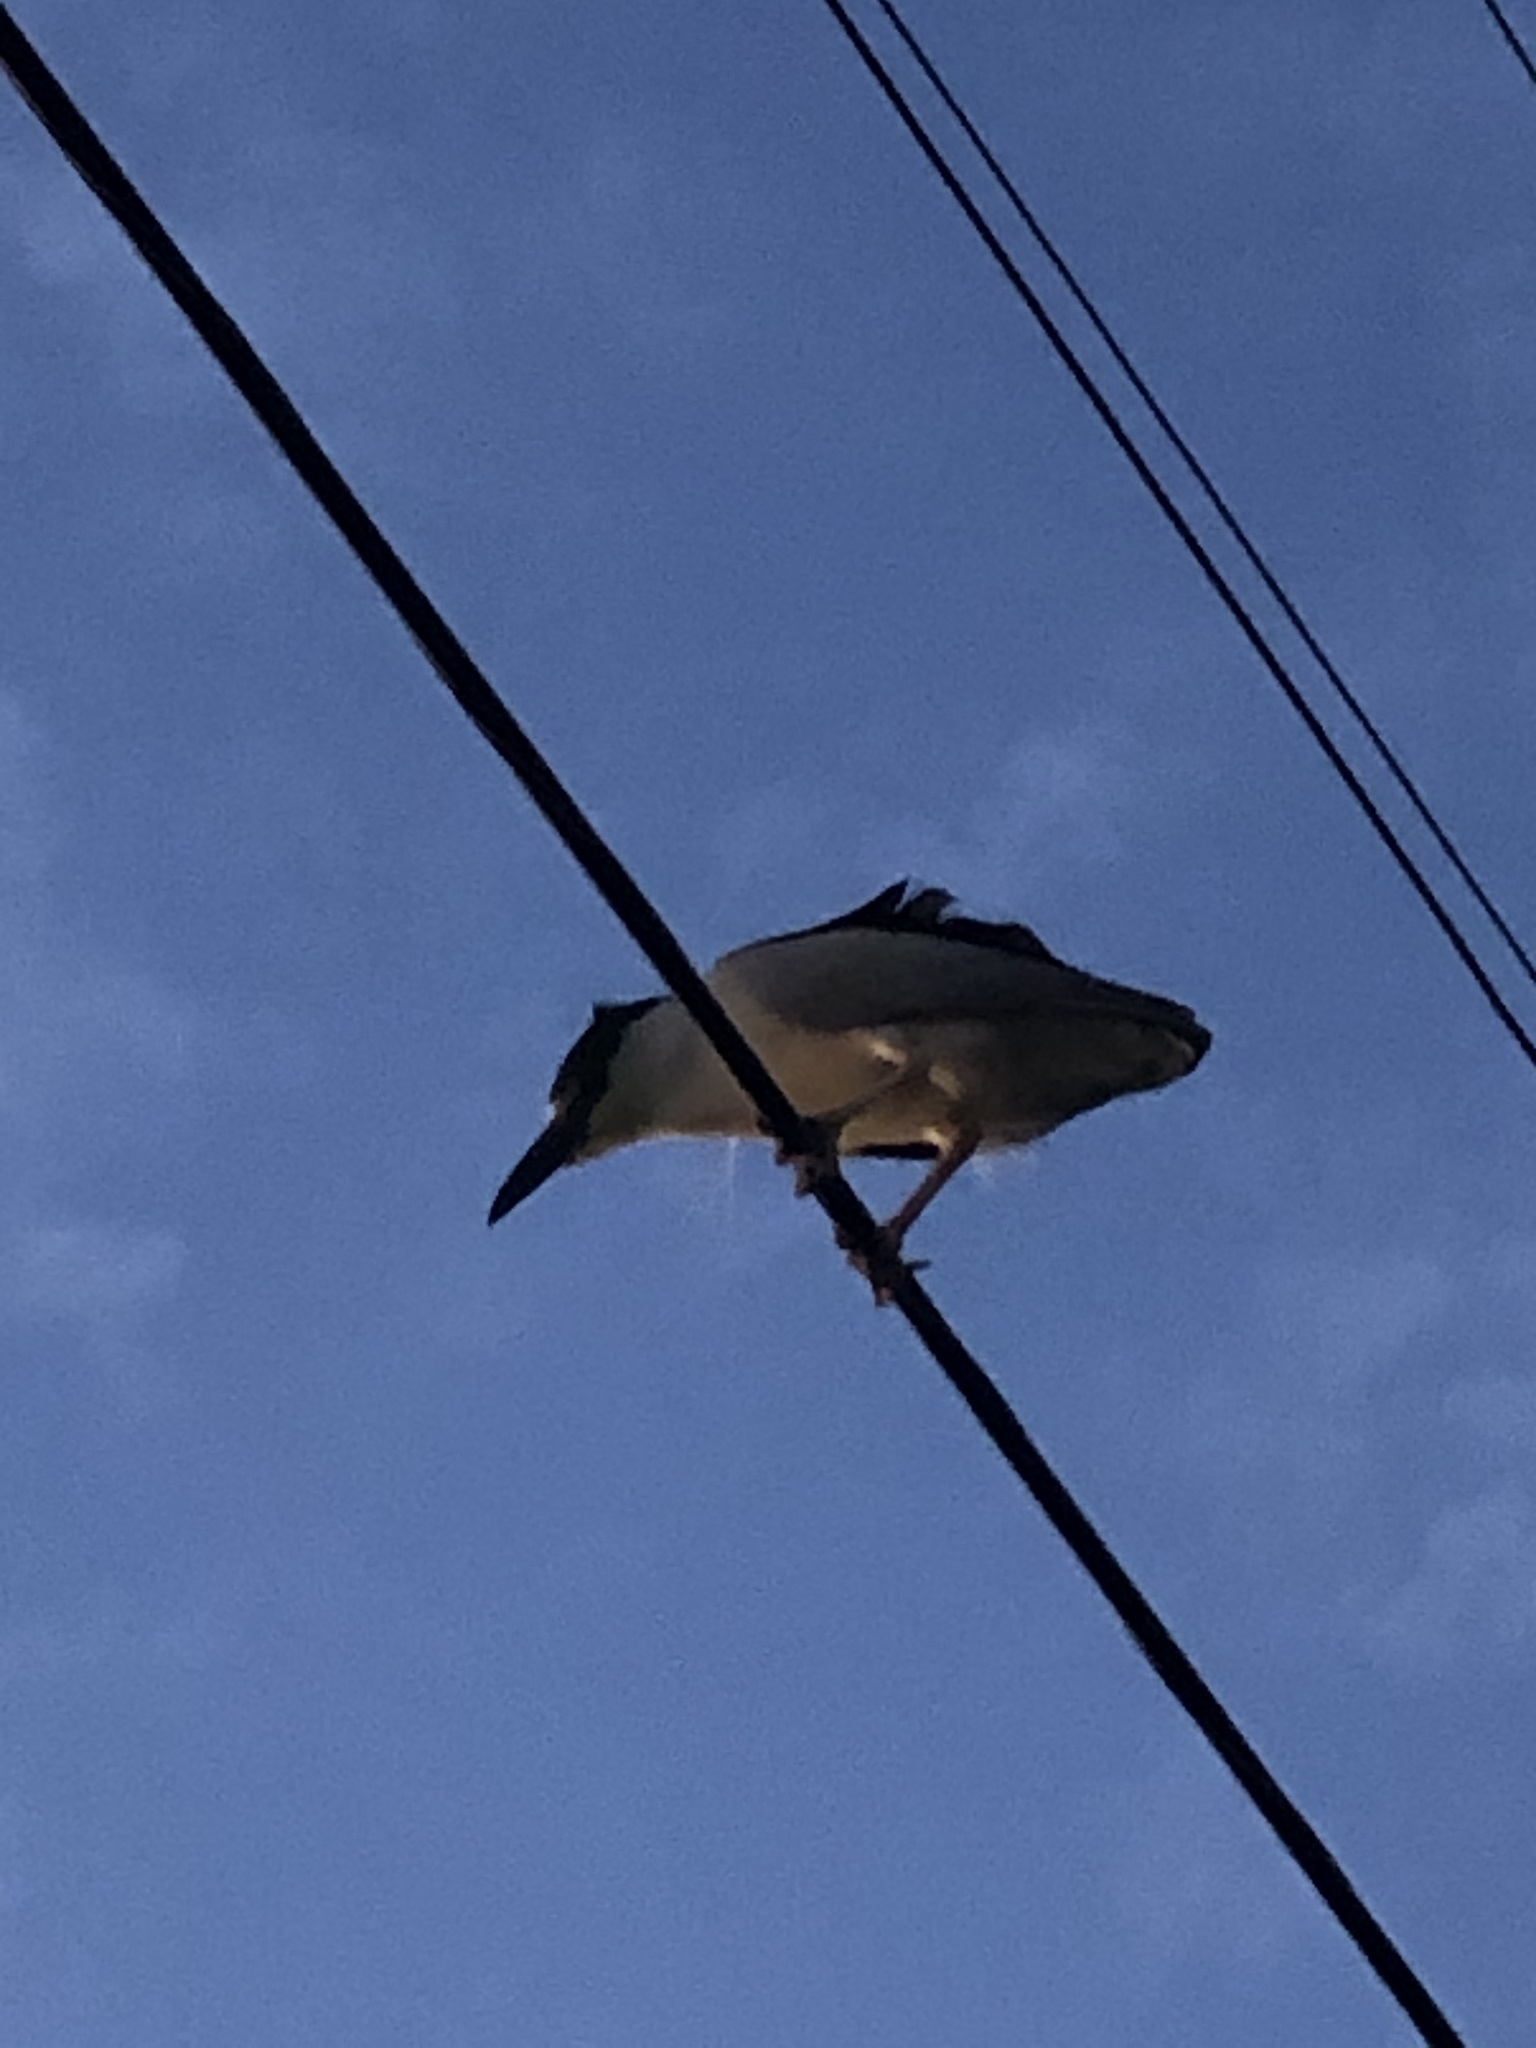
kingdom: Animalia
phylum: Chordata
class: Aves
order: Pelecaniformes
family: Ardeidae
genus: Nycticorax
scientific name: Nycticorax nycticorax
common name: Black-crowned night heron
